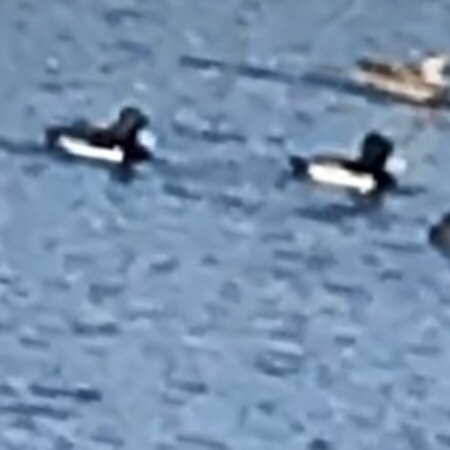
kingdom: Animalia
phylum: Chordata
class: Aves
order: Anseriformes
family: Anatidae
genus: Aythya
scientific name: Aythya collaris
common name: Ring-necked duck
